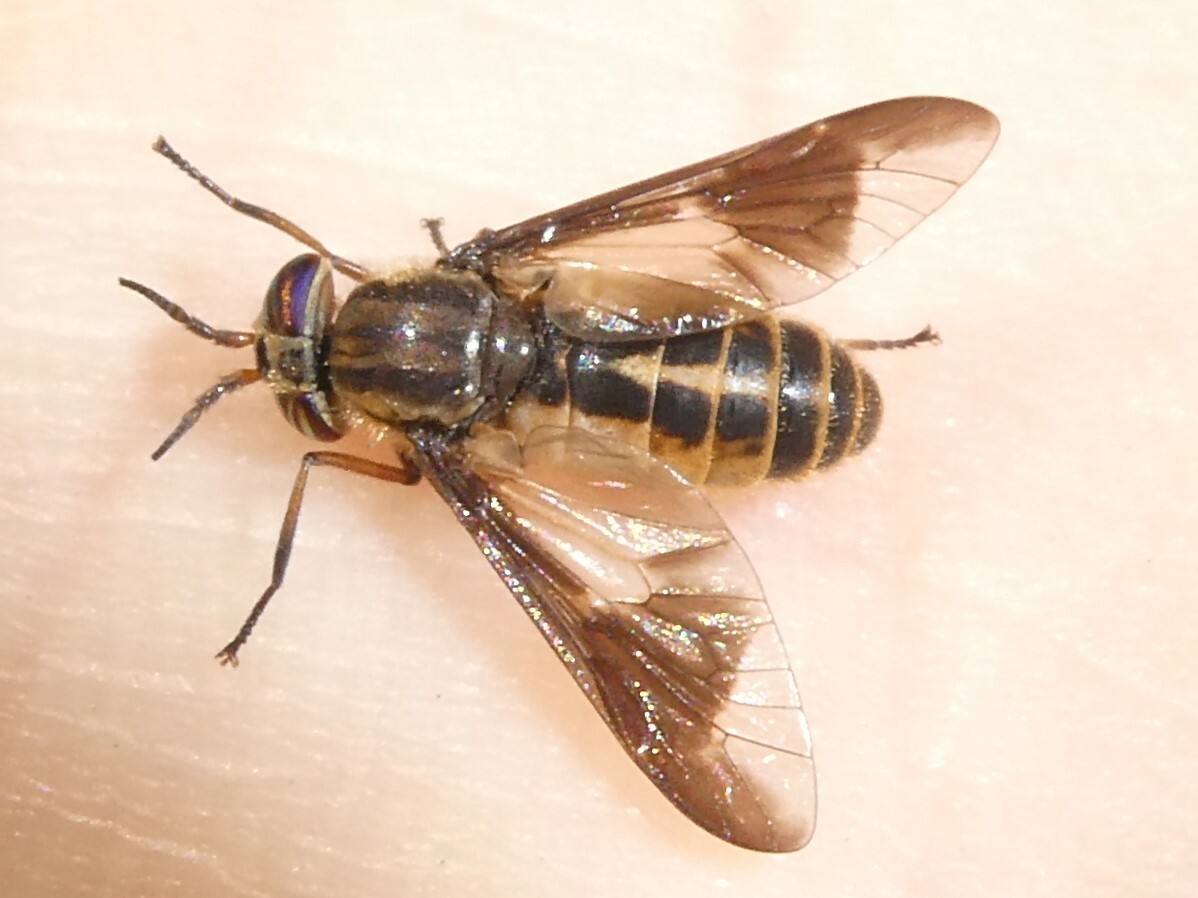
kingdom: Animalia
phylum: Arthropoda
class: Insecta
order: Diptera
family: Tabanidae
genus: Chrysops
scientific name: Chrysops indus
